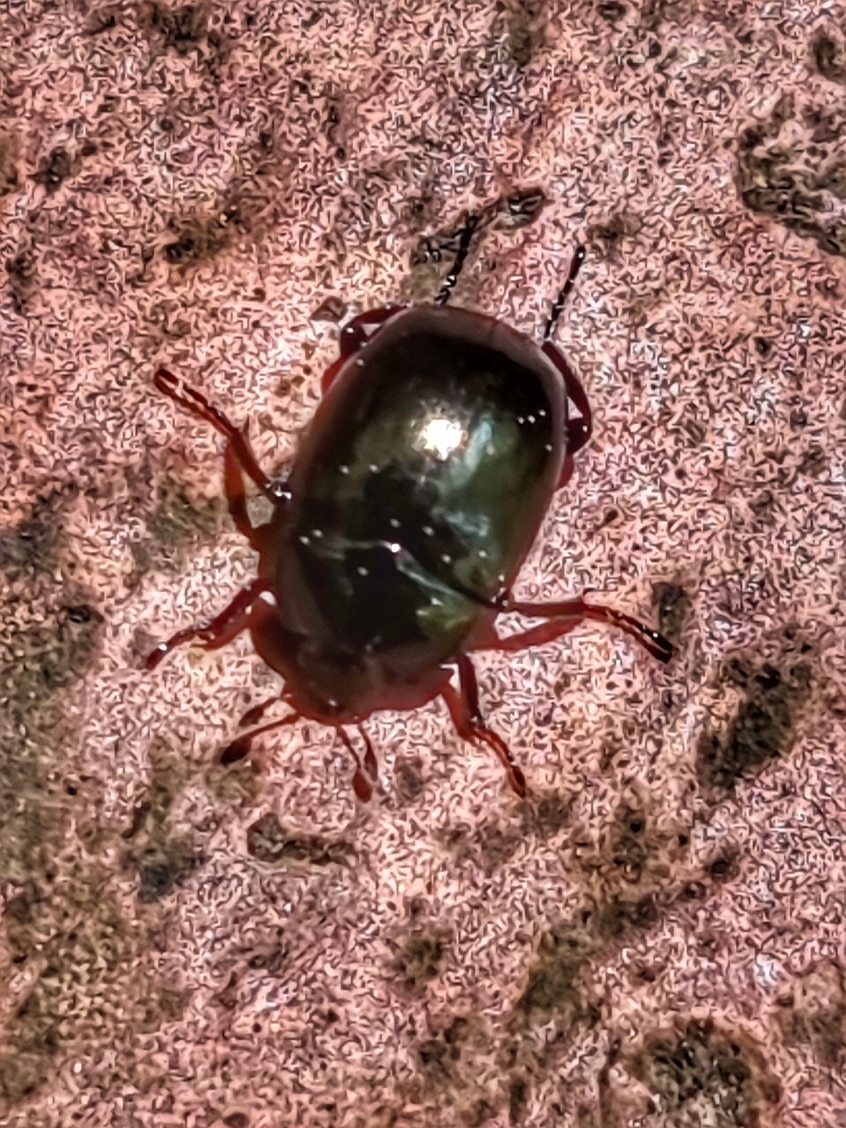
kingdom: Animalia
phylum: Arthropoda
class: Insecta
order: Coleoptera
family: Sphaeritidae
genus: Sphaerites
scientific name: Sphaerites glabratus
